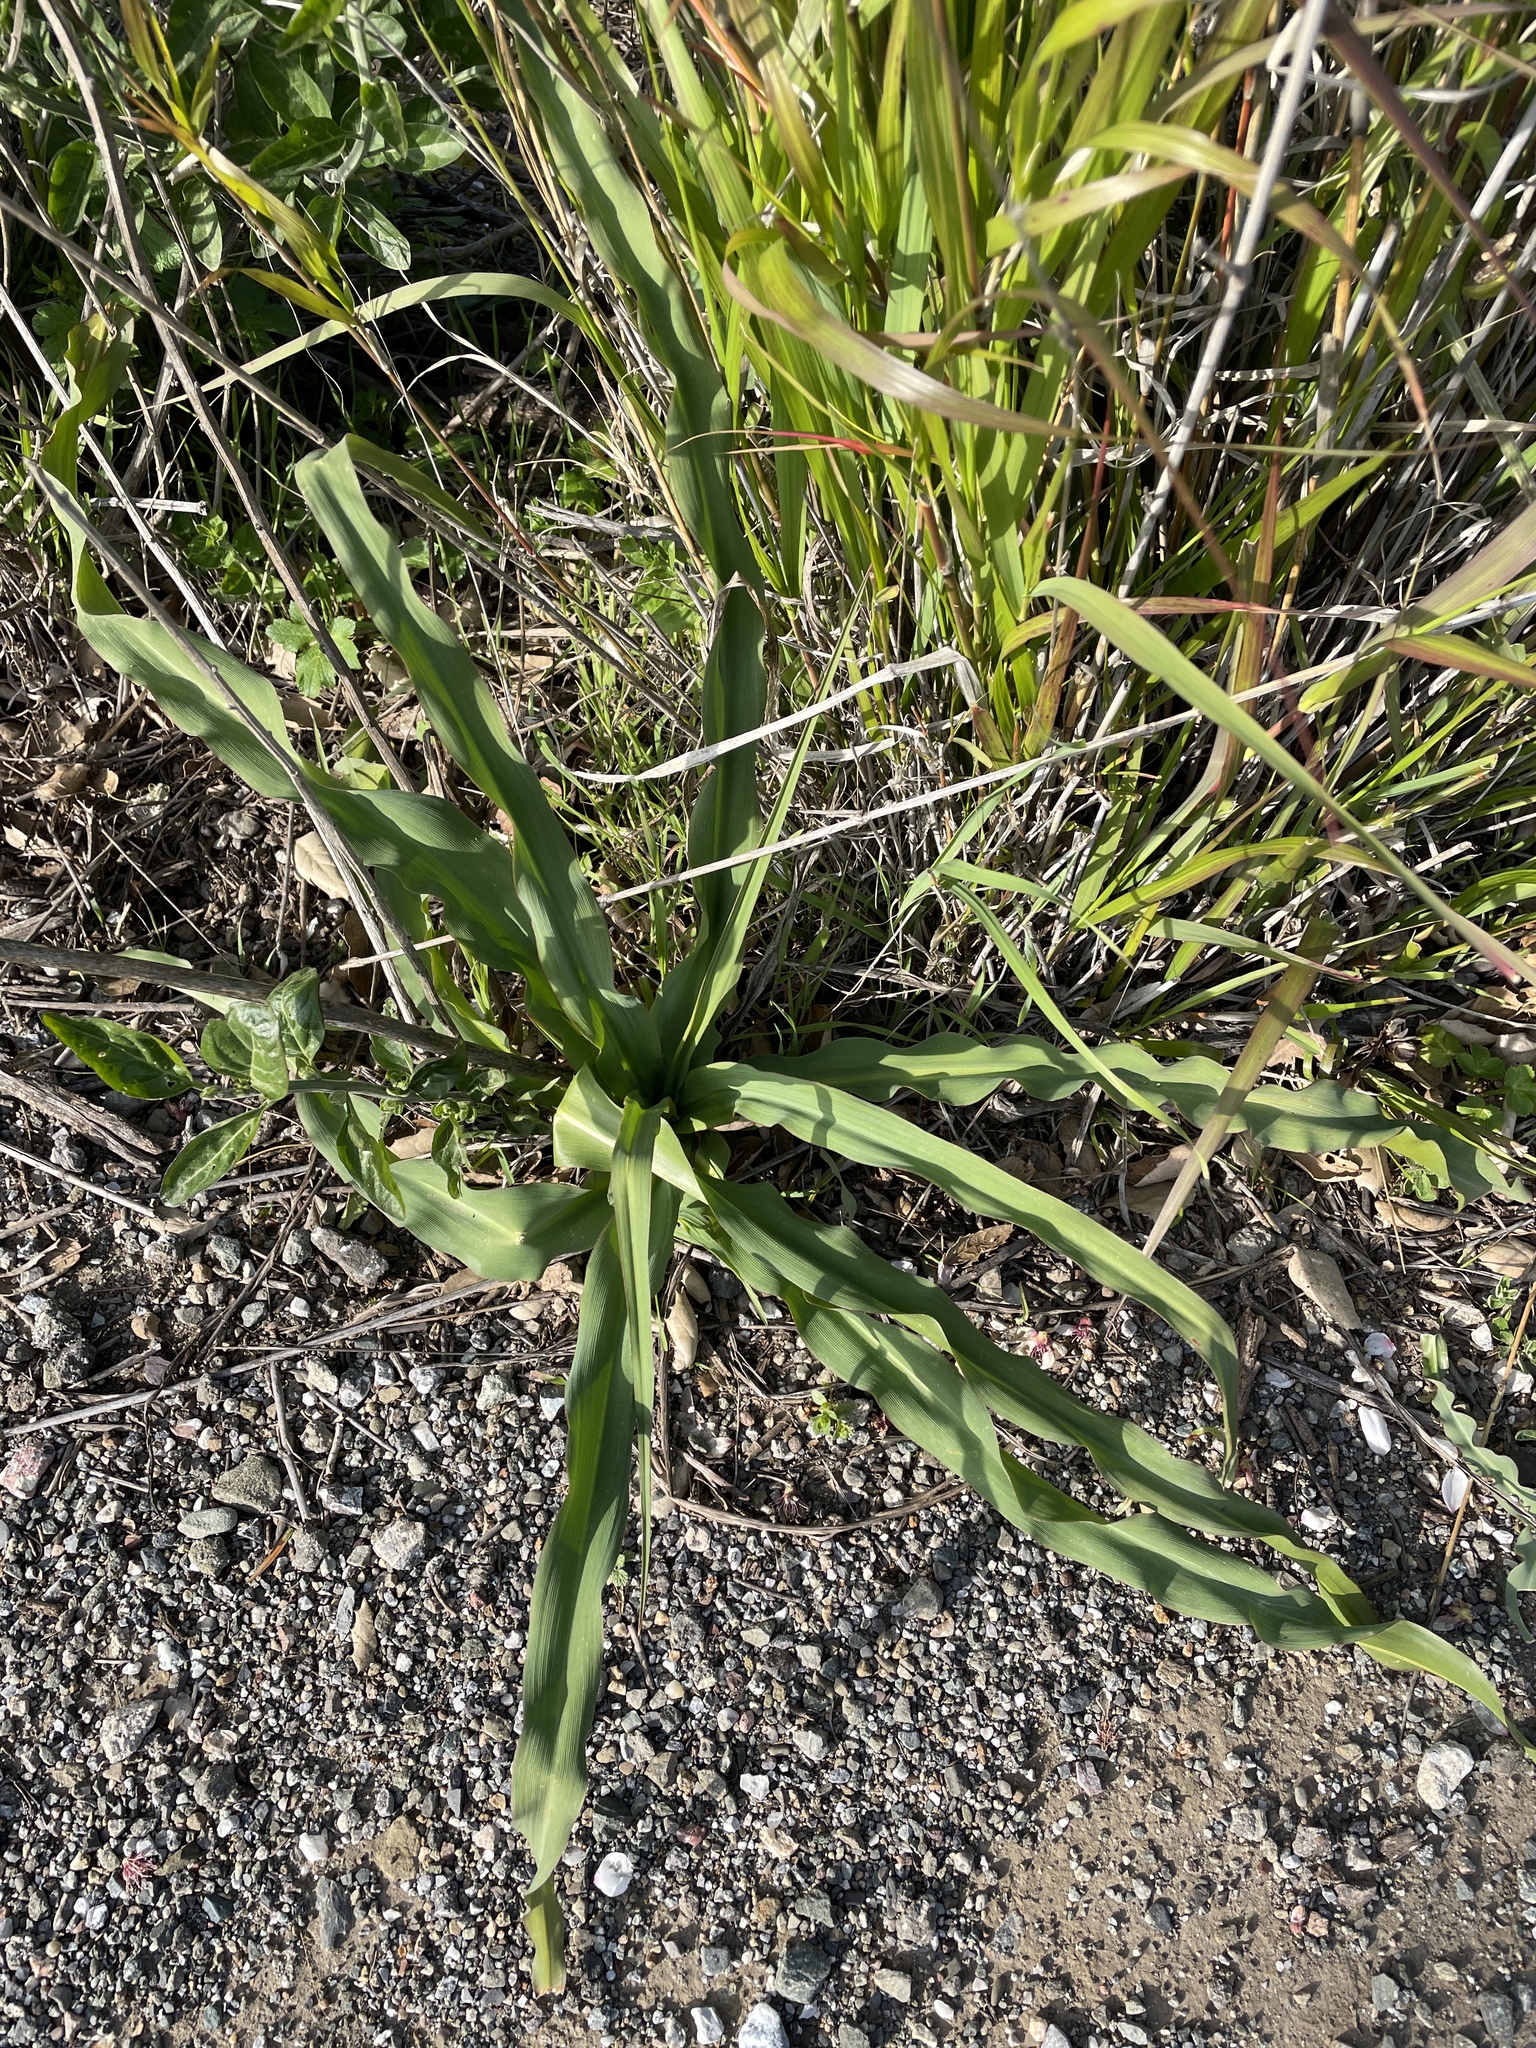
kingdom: Plantae
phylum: Tracheophyta
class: Liliopsida
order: Asparagales
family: Asparagaceae
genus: Chlorogalum
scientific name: Chlorogalum pomeridianum
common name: Amole
